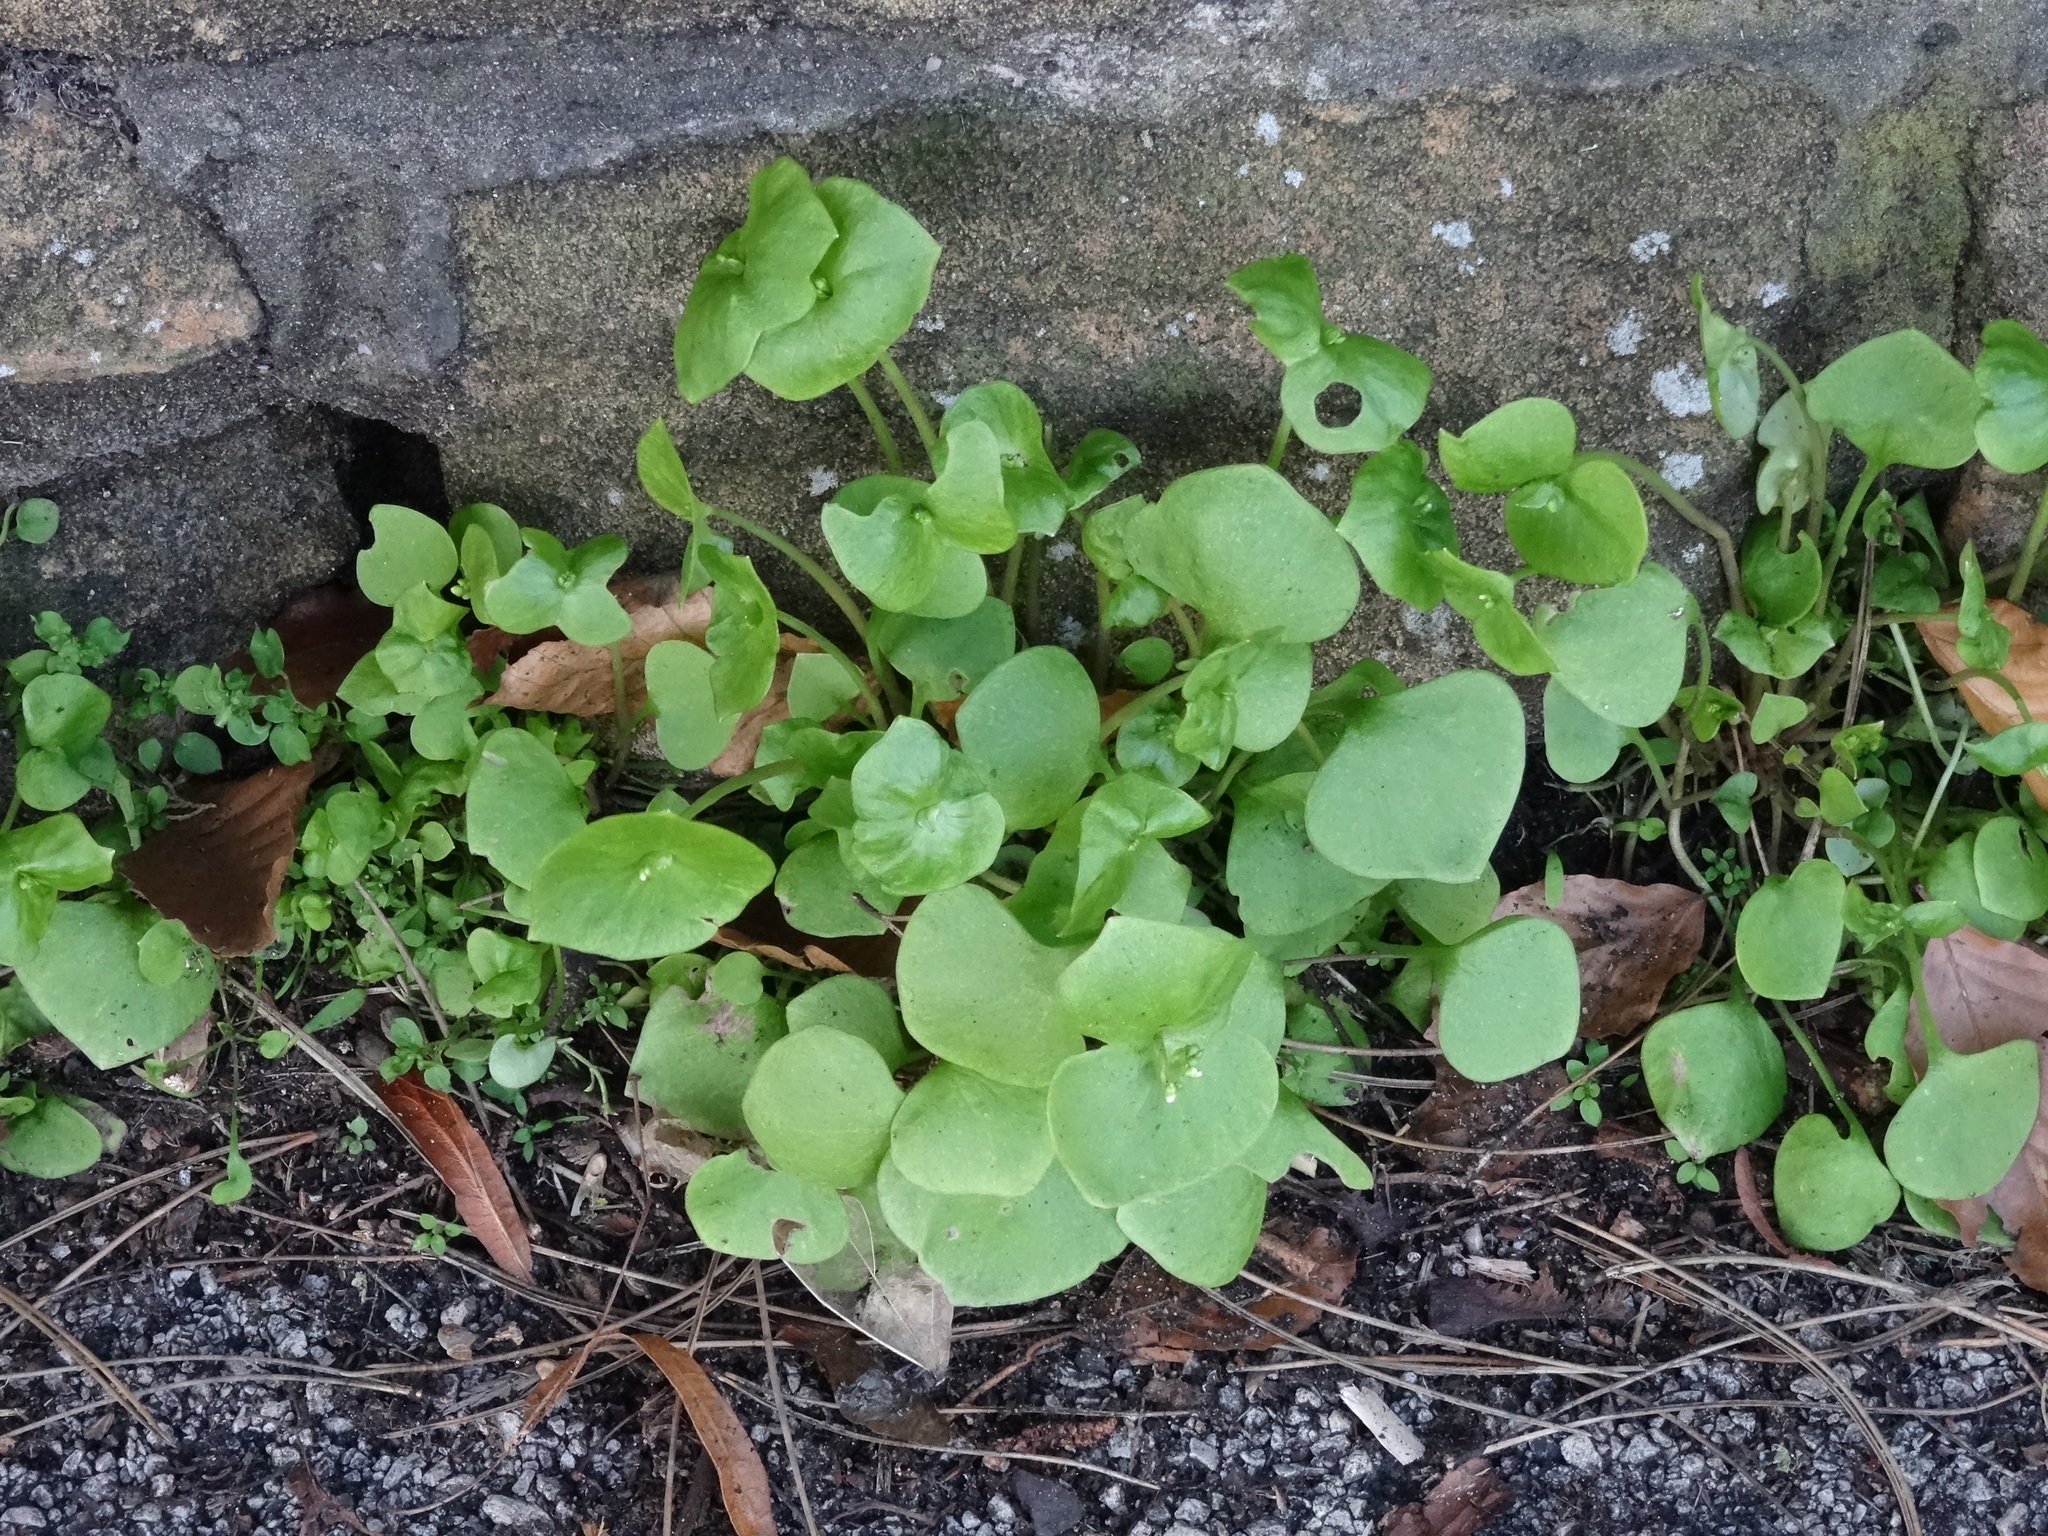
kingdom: Plantae
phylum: Tracheophyta
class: Magnoliopsida
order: Caryophyllales
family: Montiaceae
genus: Claytonia
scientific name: Claytonia perfoliata
